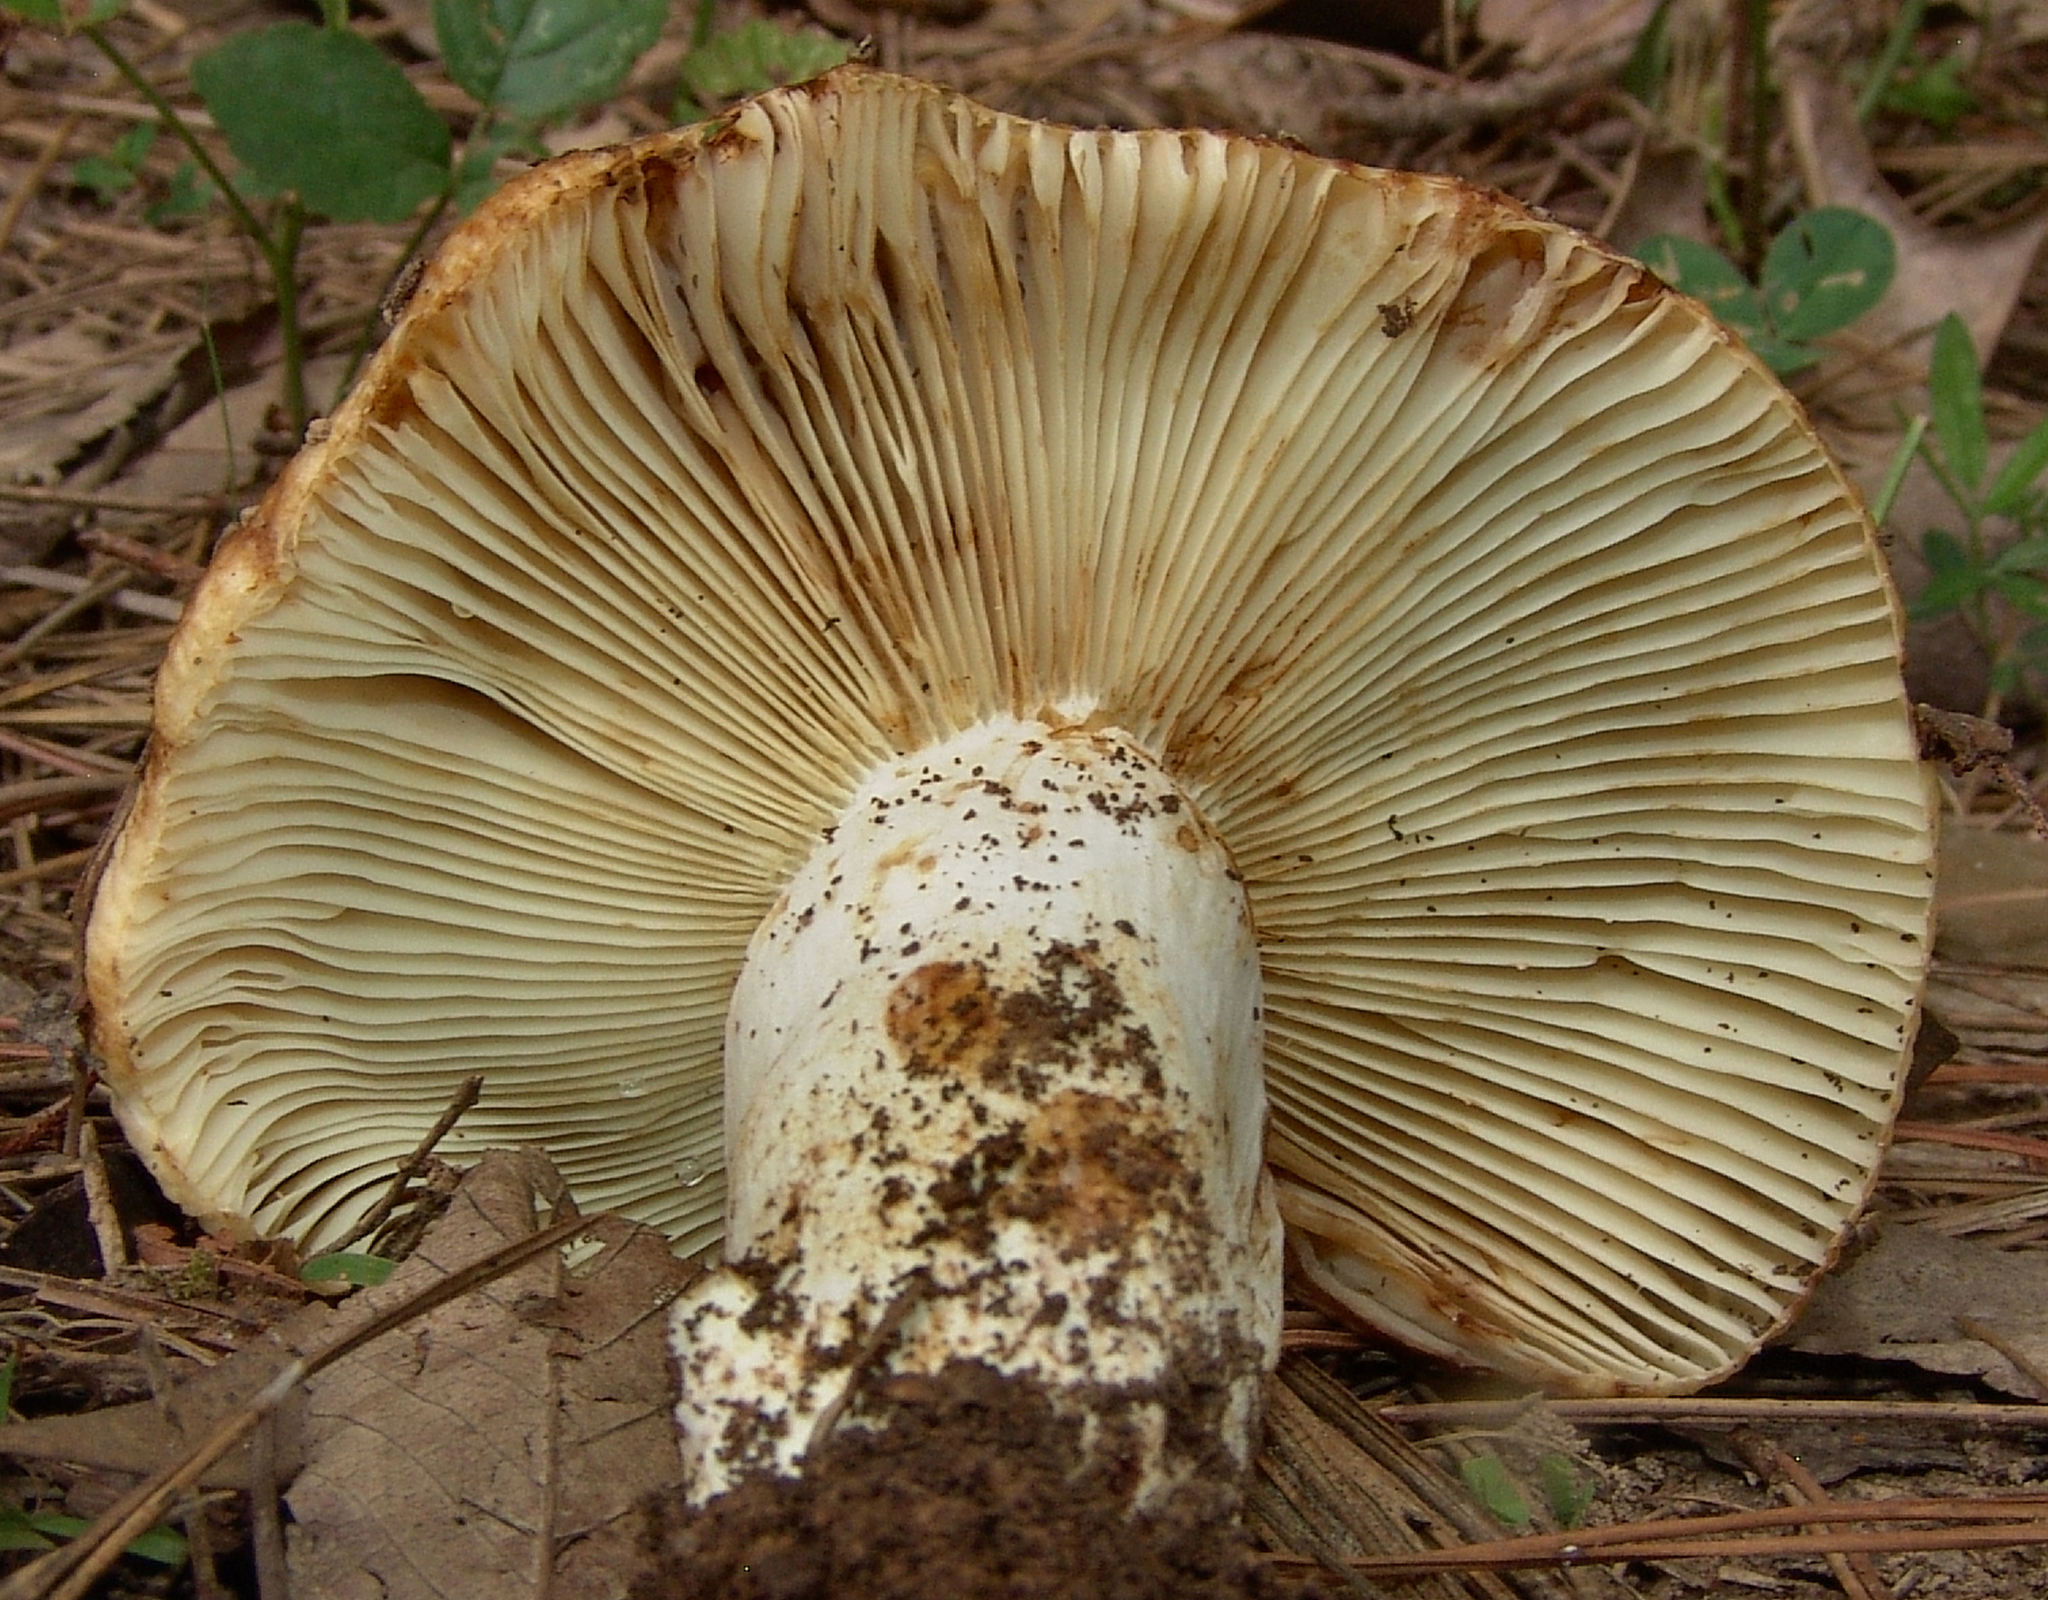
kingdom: Fungi
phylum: Basidiomycota
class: Agaricomycetes
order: Russulales
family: Russulaceae
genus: Russula
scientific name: Russula
